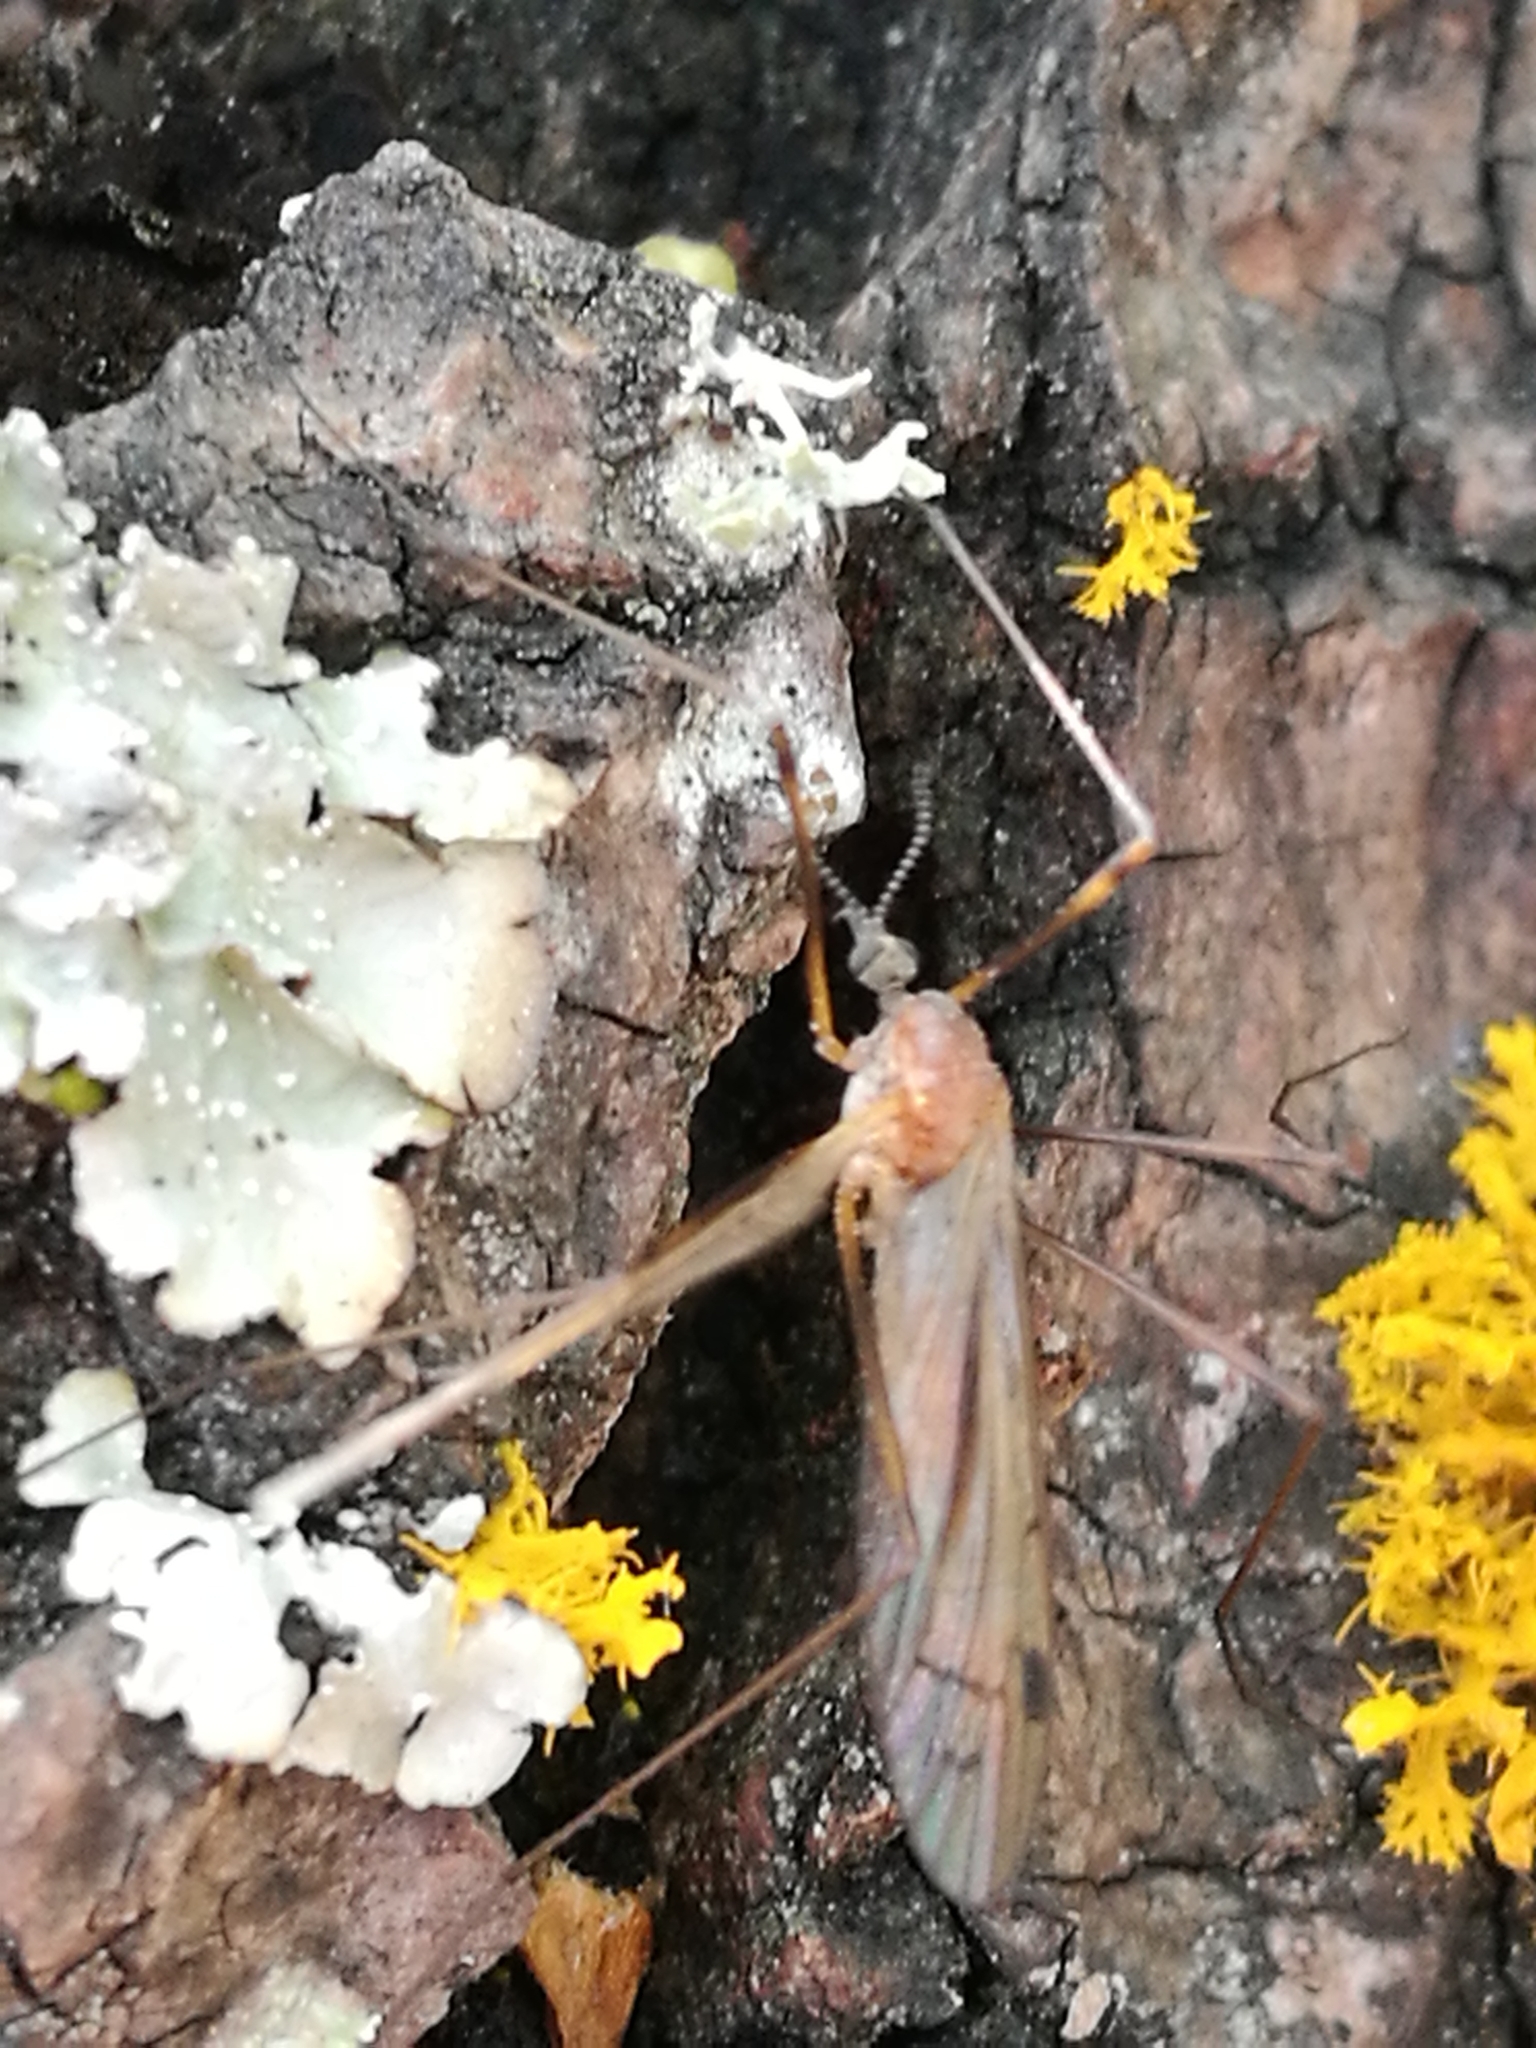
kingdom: Animalia
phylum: Arthropoda
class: Insecta
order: Diptera
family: Limoniidae
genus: Dicranomyia
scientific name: Dicranomyia cubitalis
